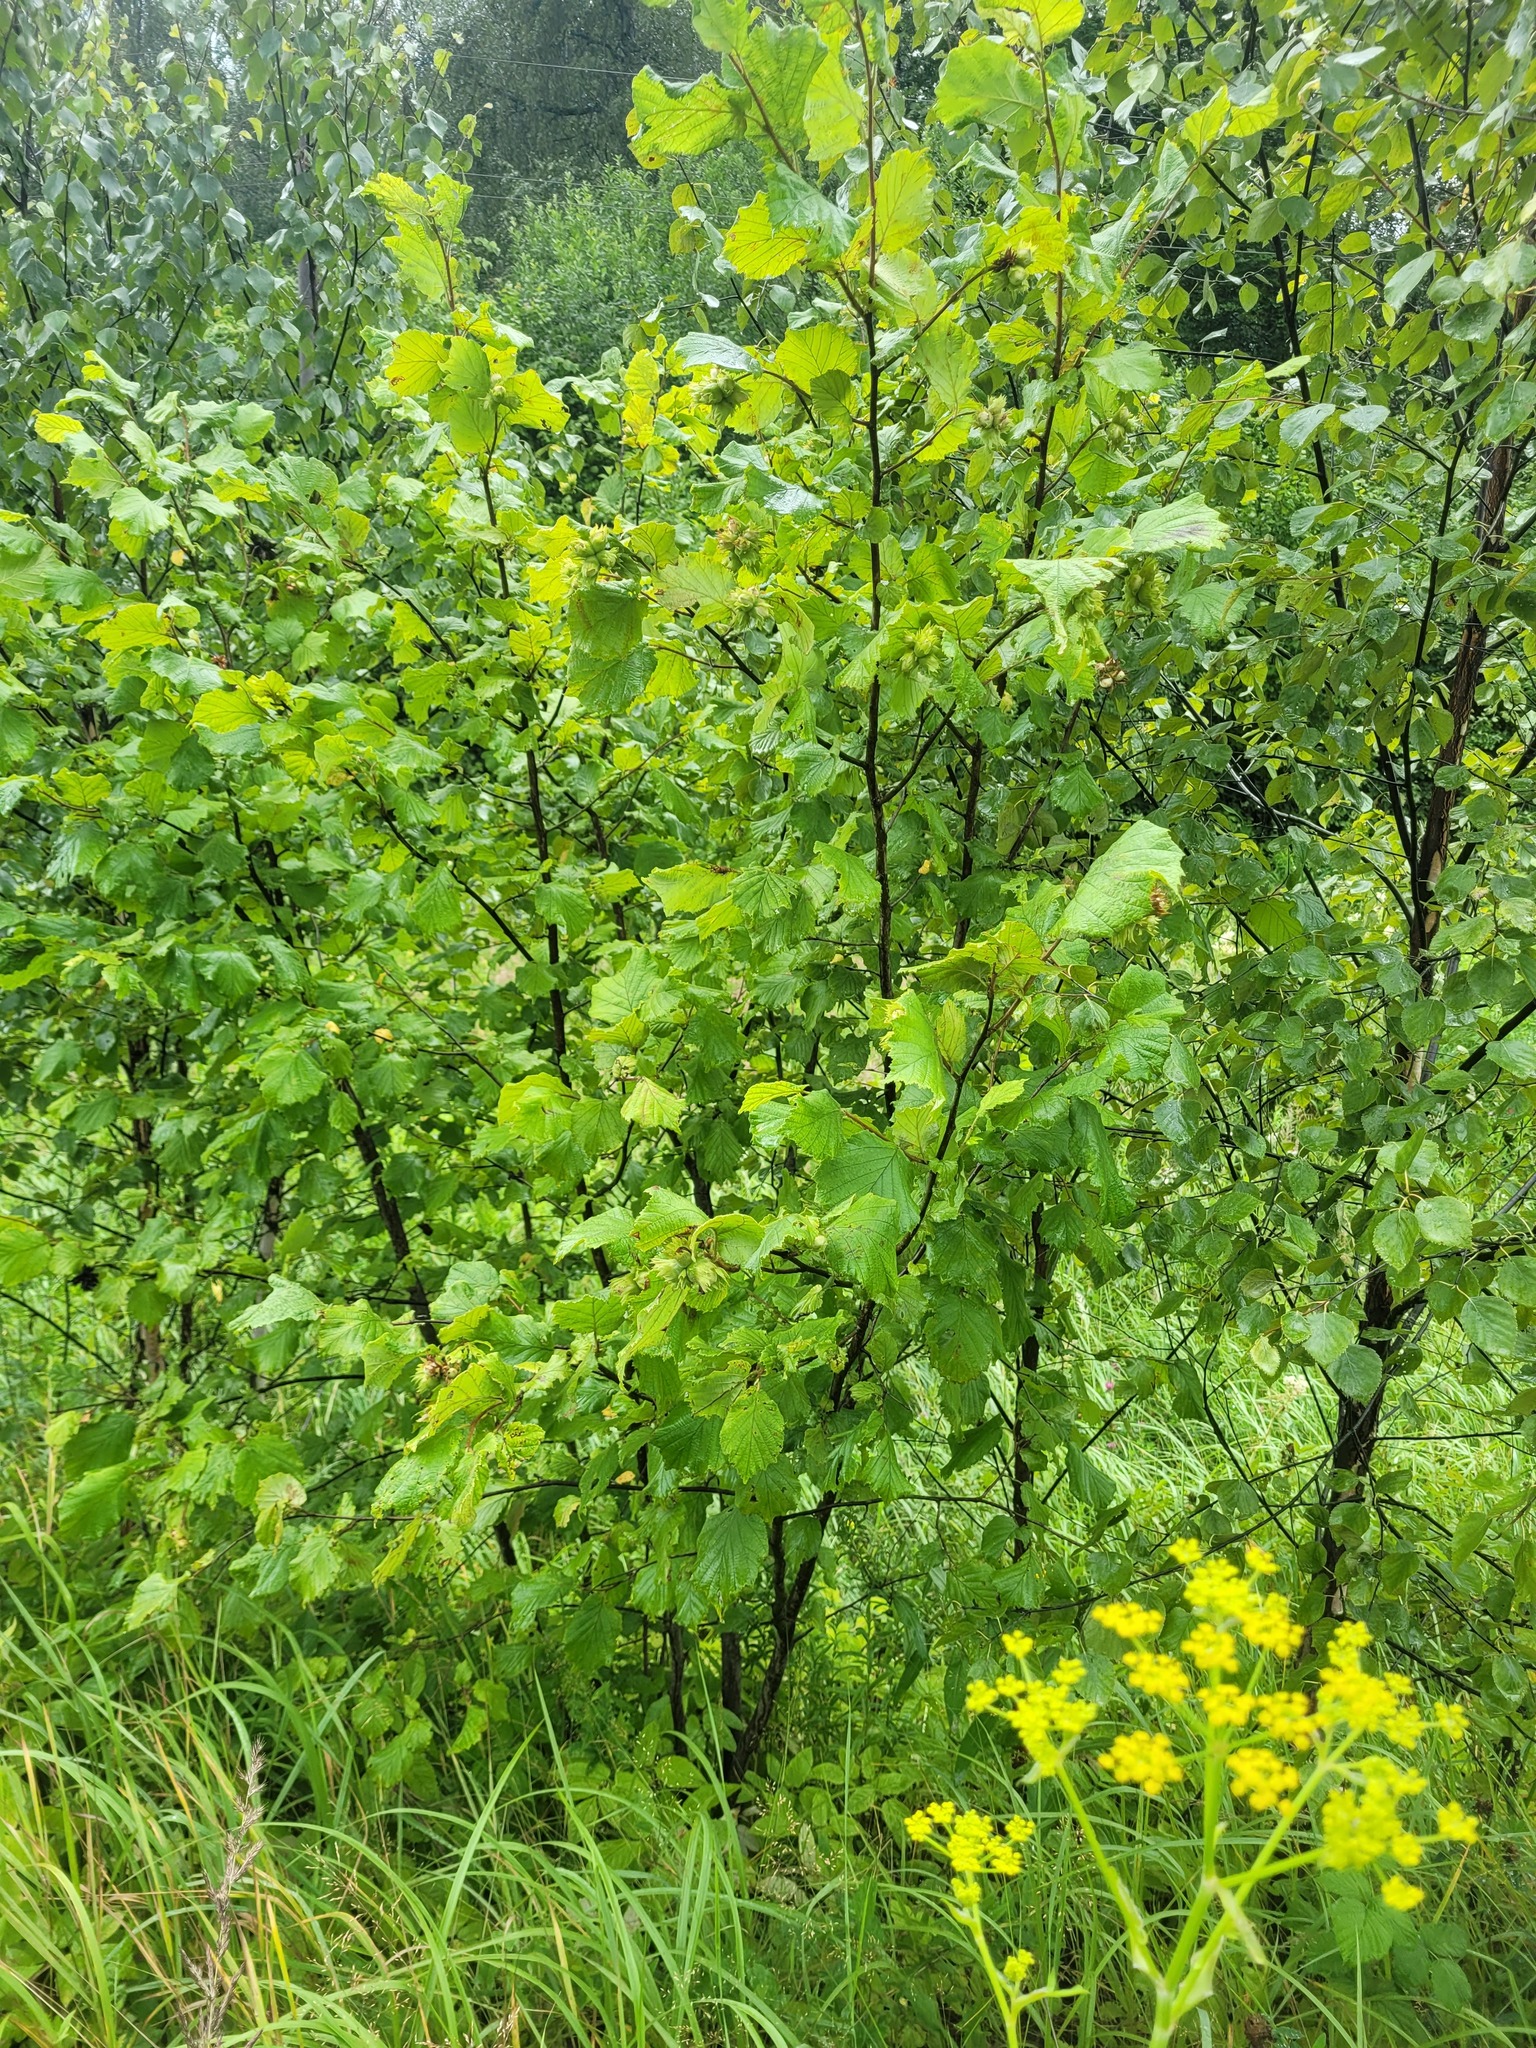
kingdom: Plantae
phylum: Tracheophyta
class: Magnoliopsida
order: Fagales
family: Betulaceae
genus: Corylus
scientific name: Corylus avellana
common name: European hazel
